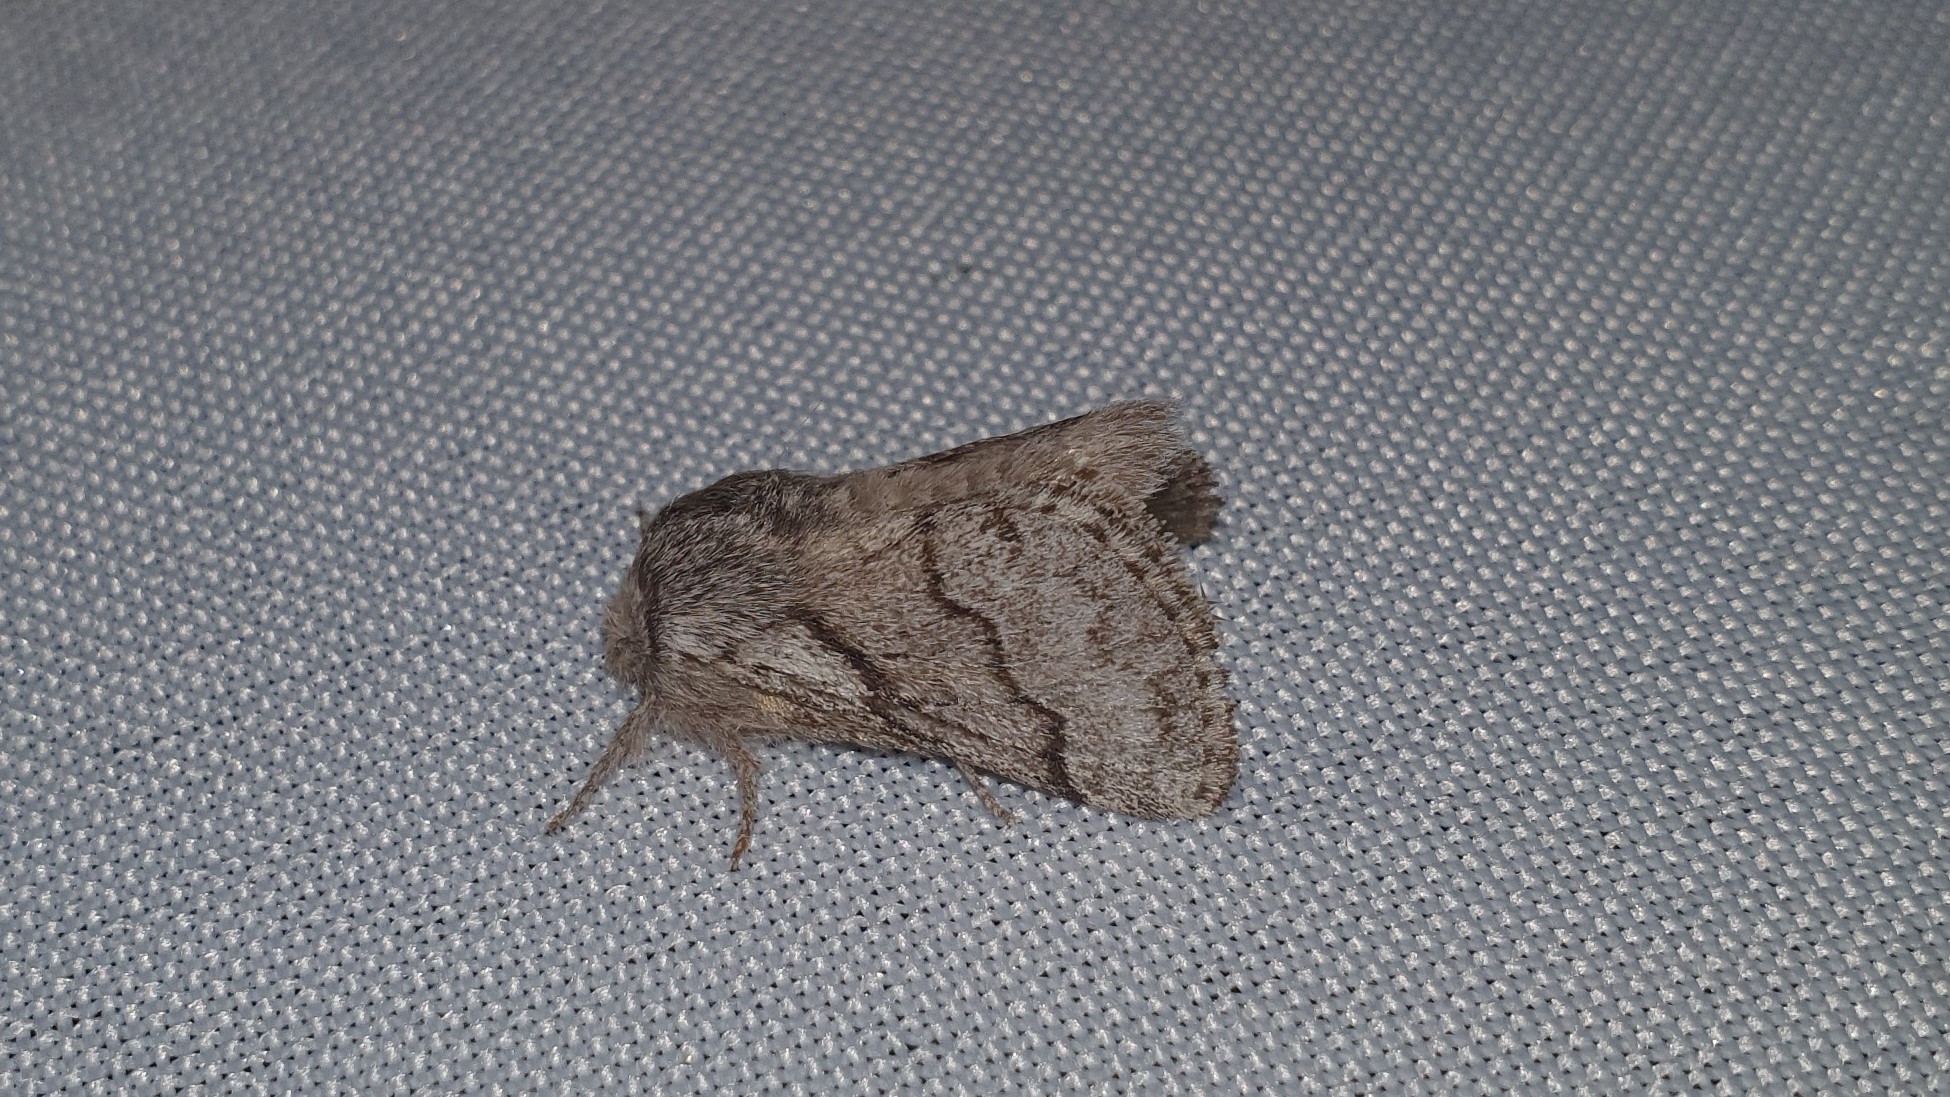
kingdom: Animalia
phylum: Arthropoda
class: Insecta
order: Lepidoptera
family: Lasiocampidae
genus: Trichiura
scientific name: Trichiura crataegi
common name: Pale eggar
